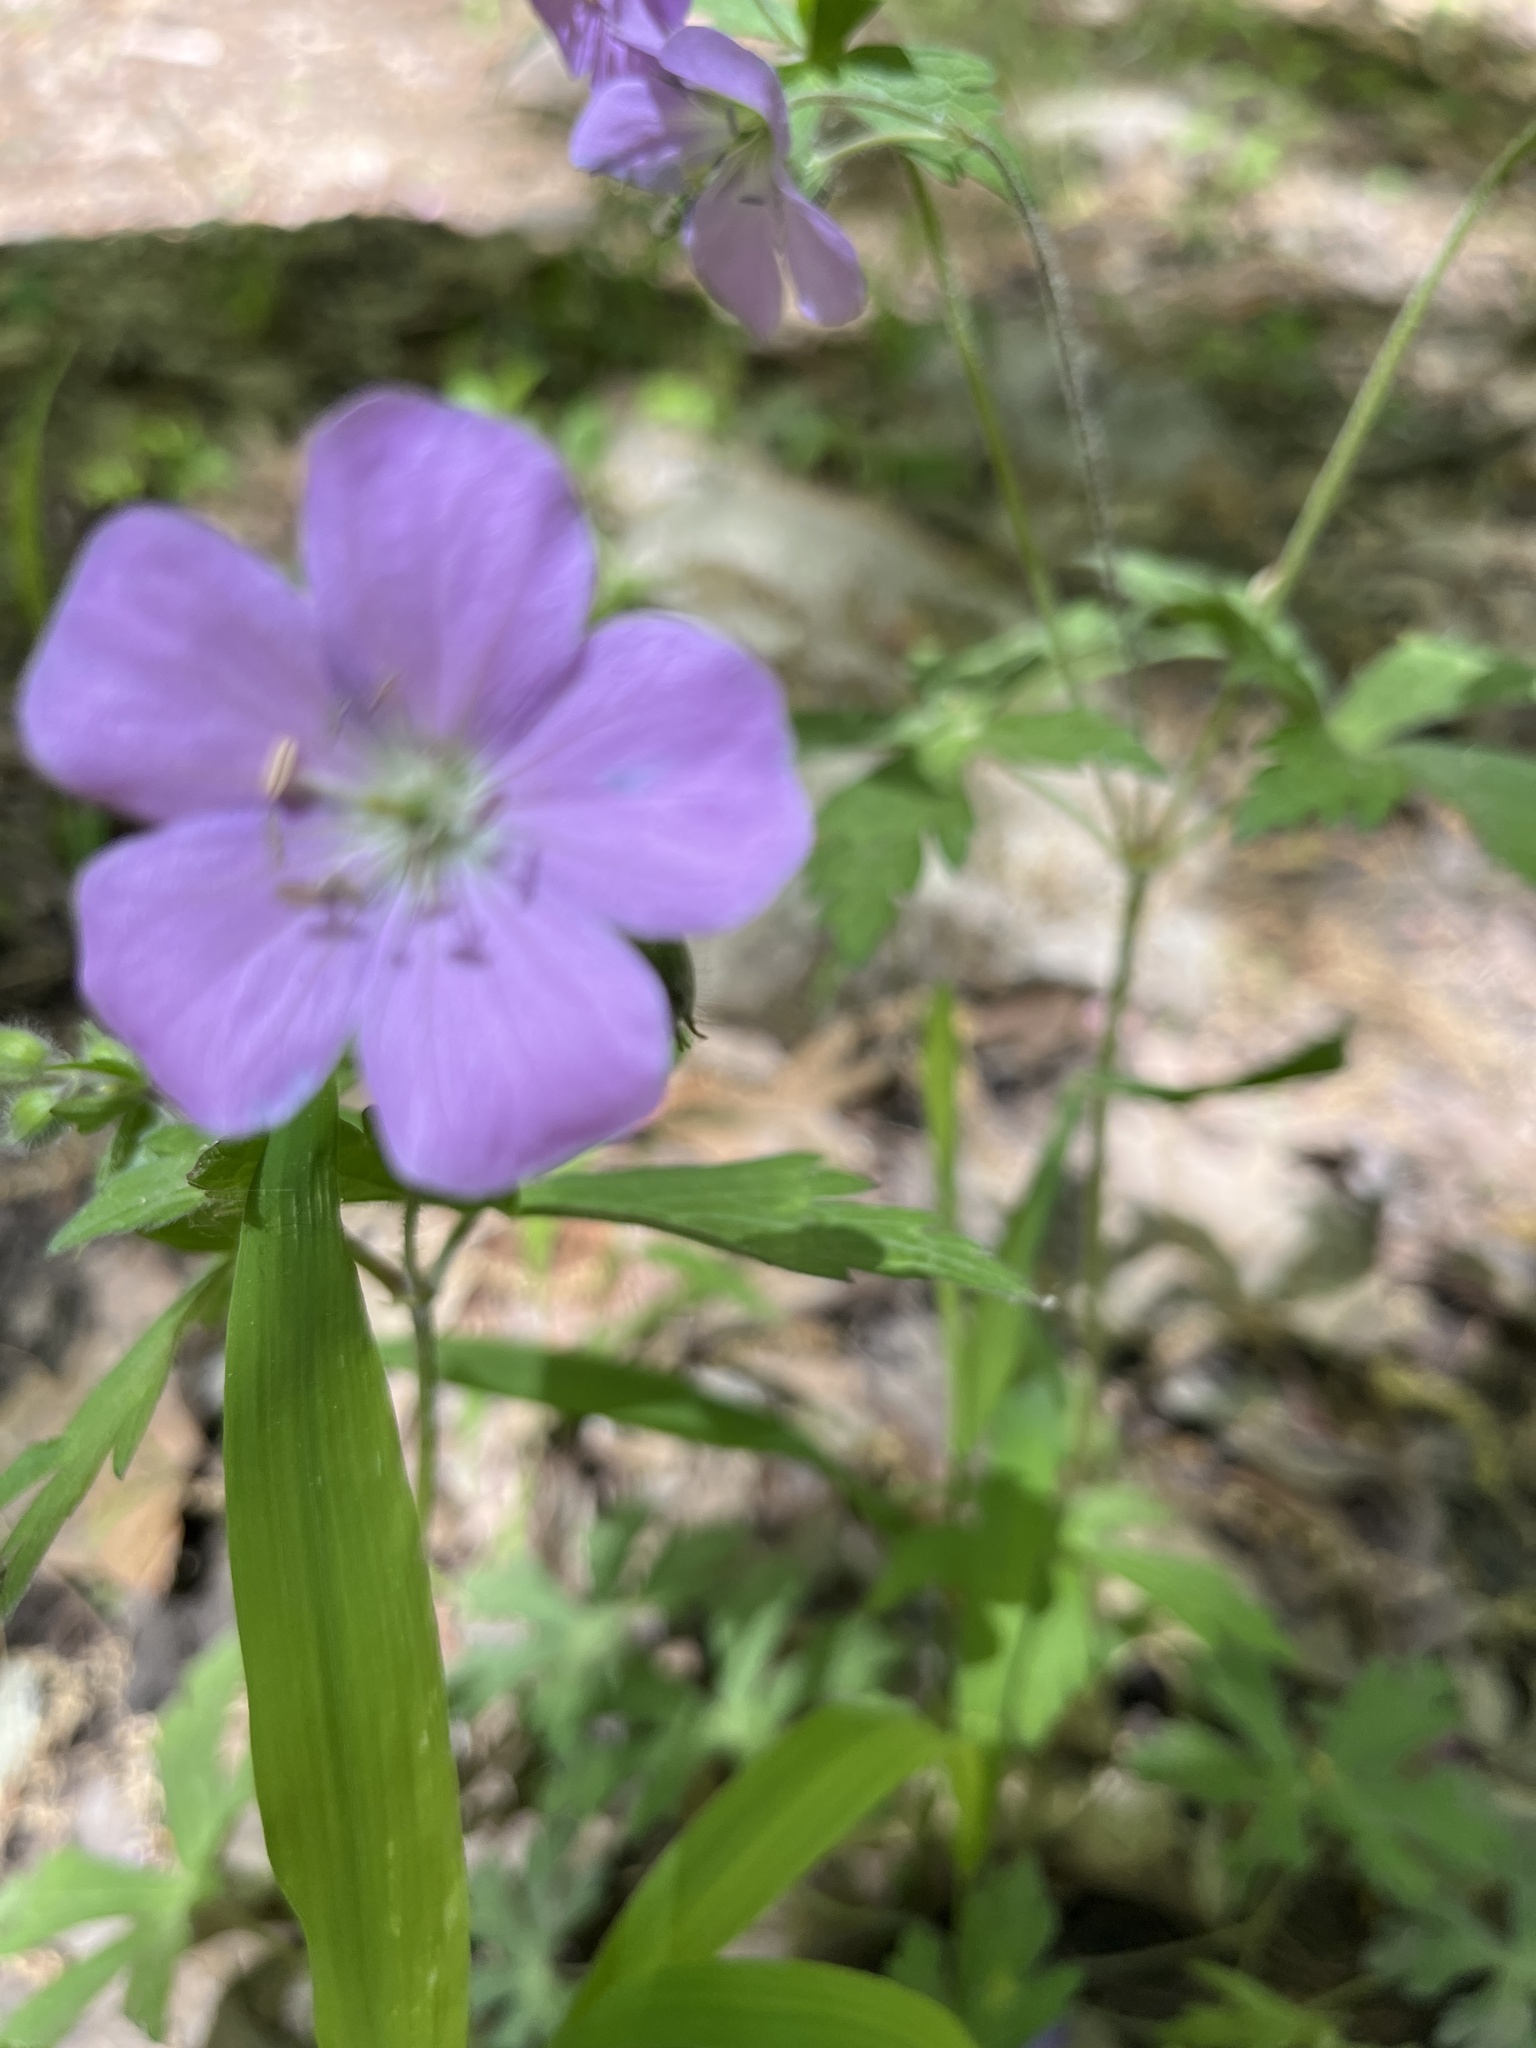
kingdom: Plantae
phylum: Tracheophyta
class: Magnoliopsida
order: Geraniales
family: Geraniaceae
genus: Geranium
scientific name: Geranium maculatum
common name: Spotted geranium
